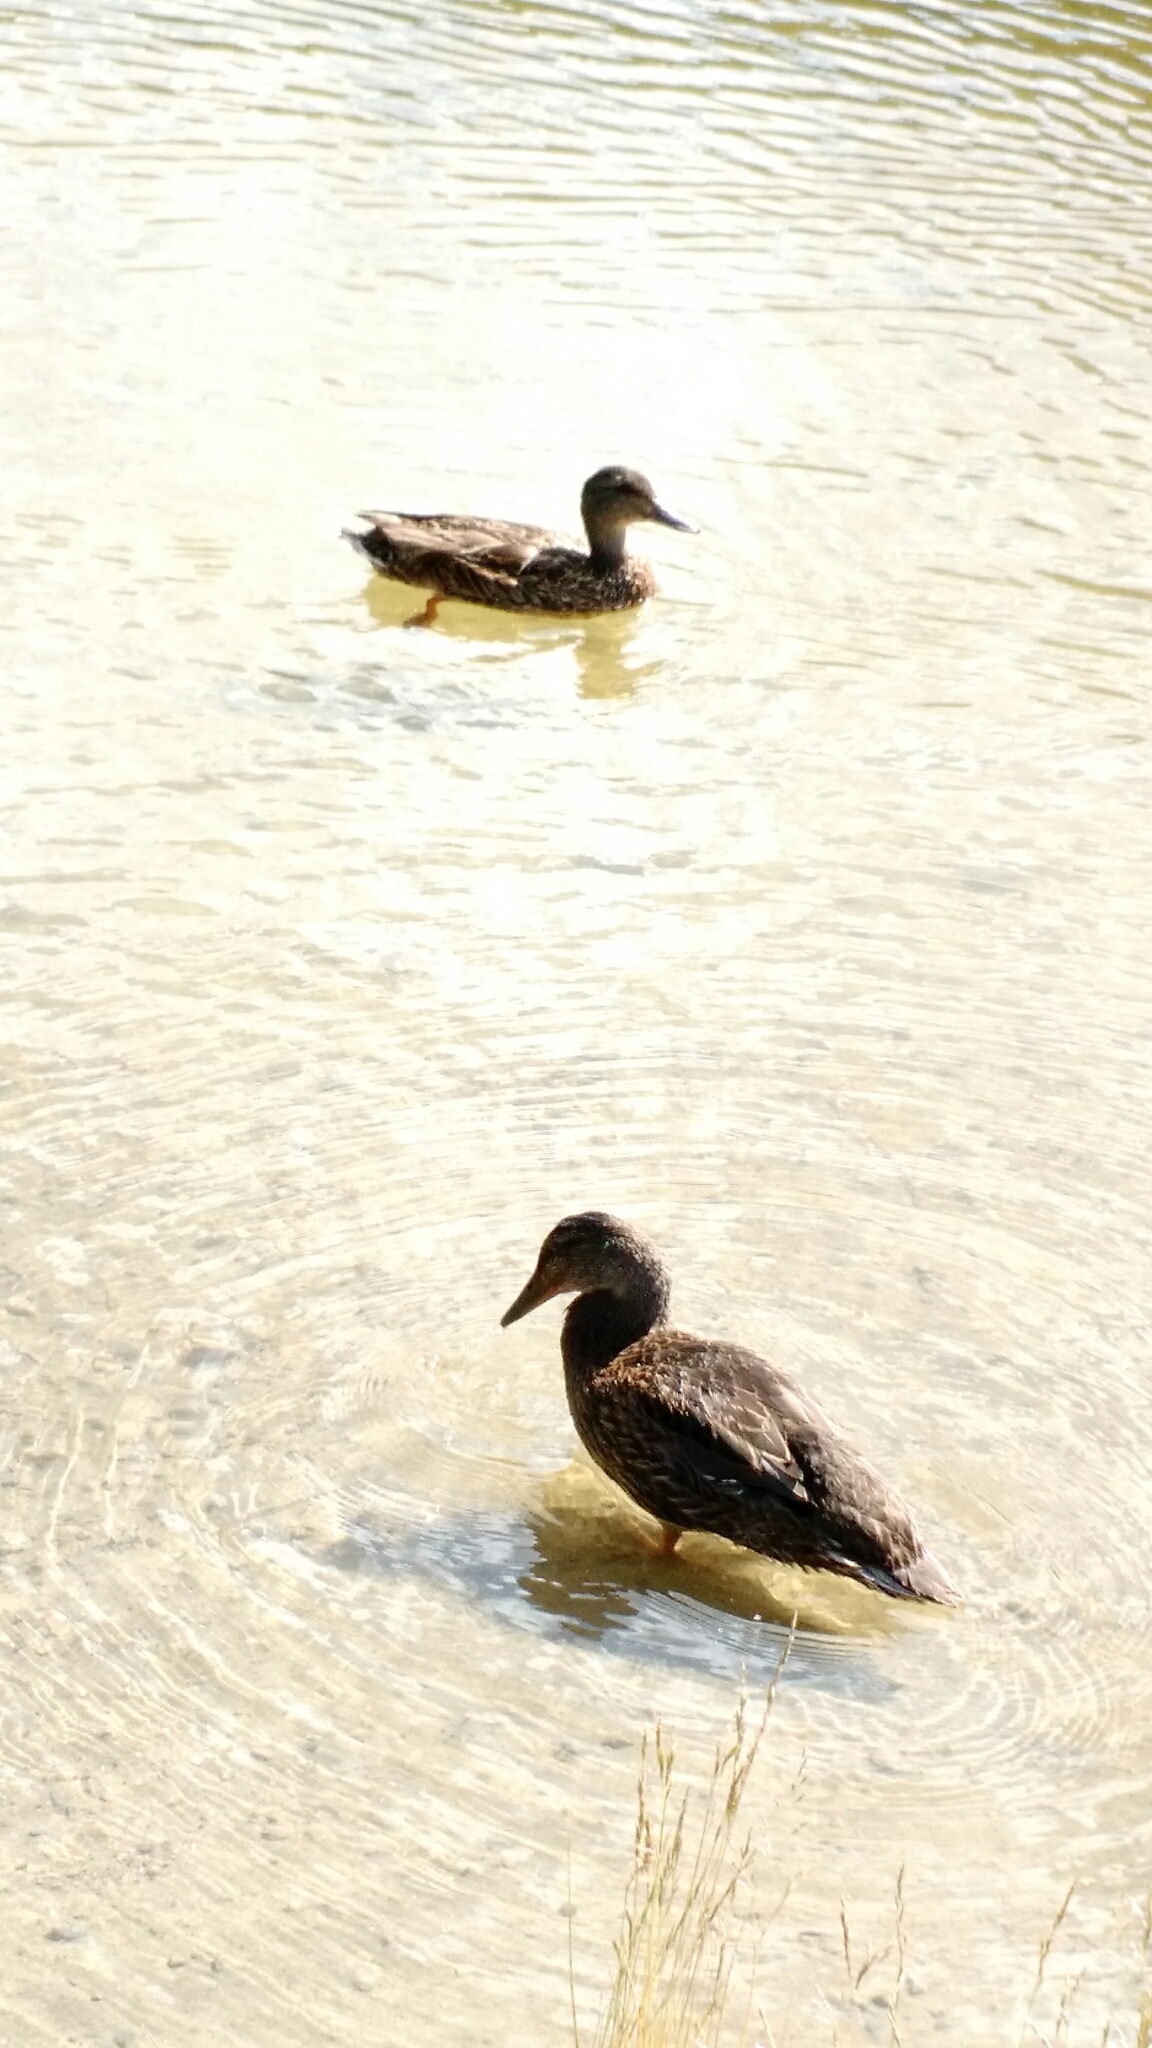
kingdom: Animalia
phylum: Chordata
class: Aves
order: Anseriformes
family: Anatidae
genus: Anas
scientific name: Anas platyrhynchos
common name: Mallard
